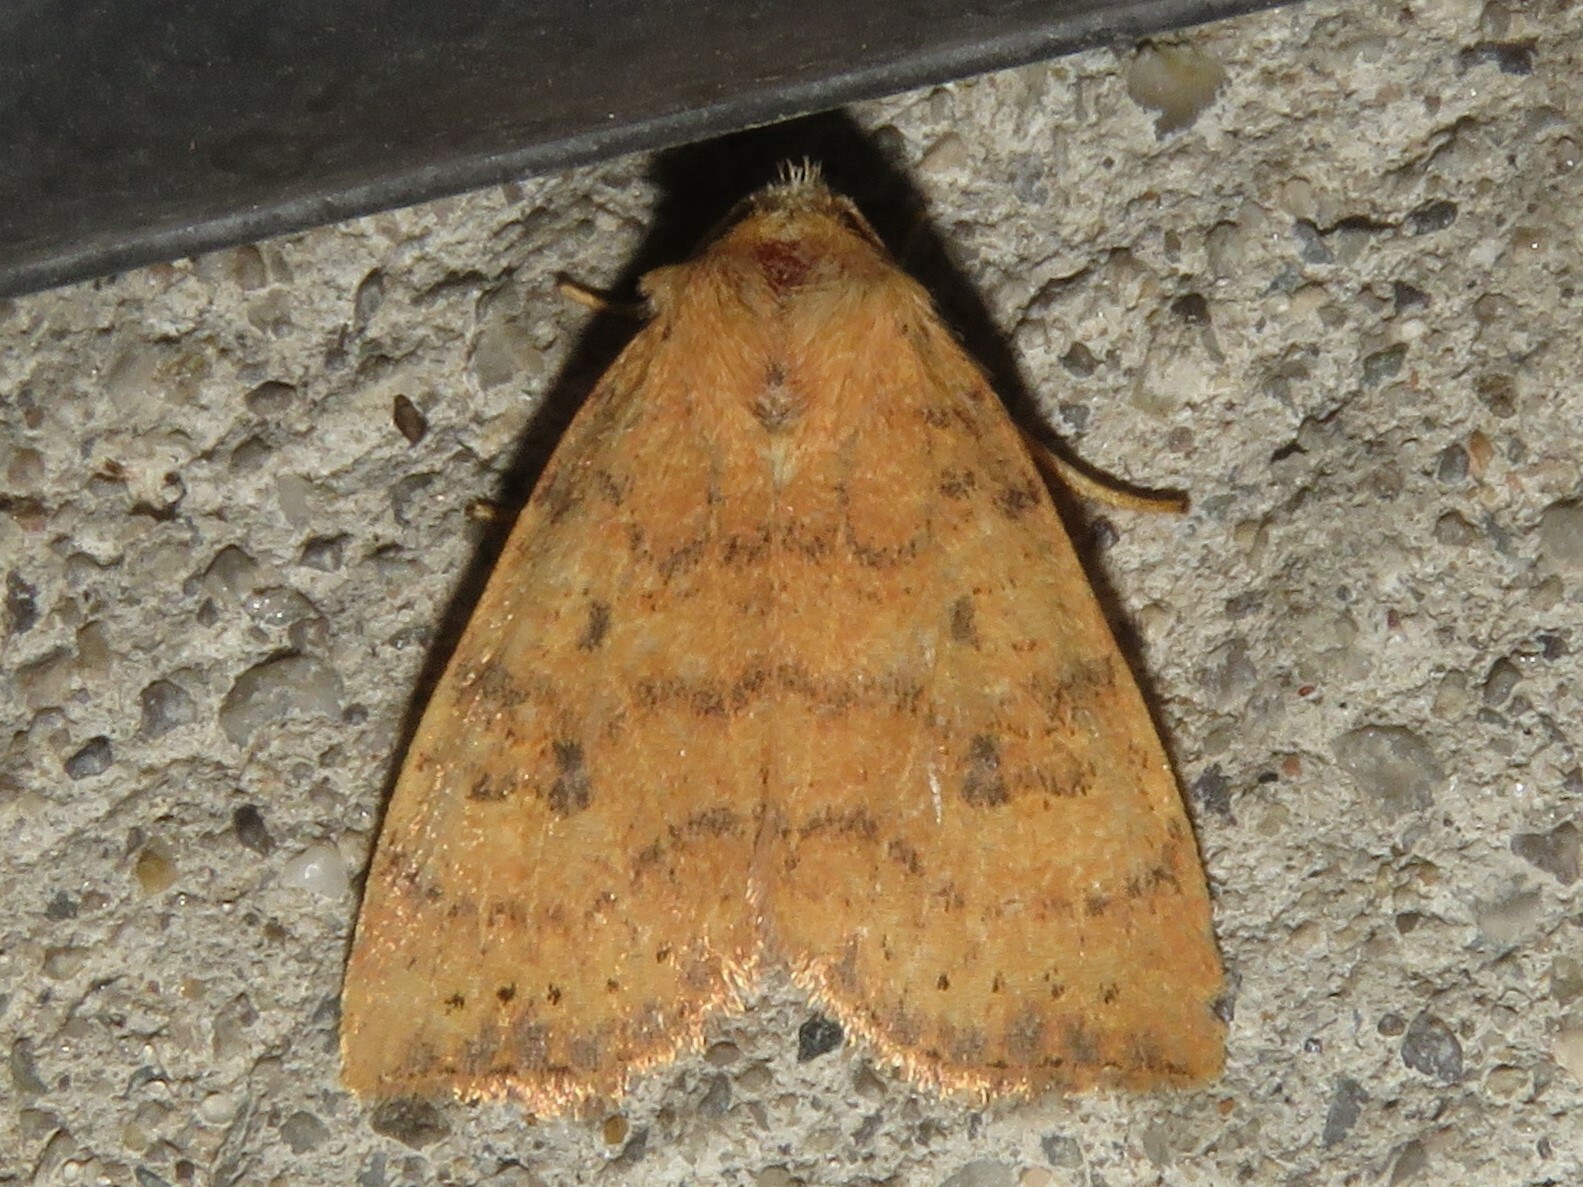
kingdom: Animalia
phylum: Arthropoda
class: Insecta
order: Lepidoptera
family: Noctuidae
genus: Anathix
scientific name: Anathix ralla
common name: Dotted sallow
